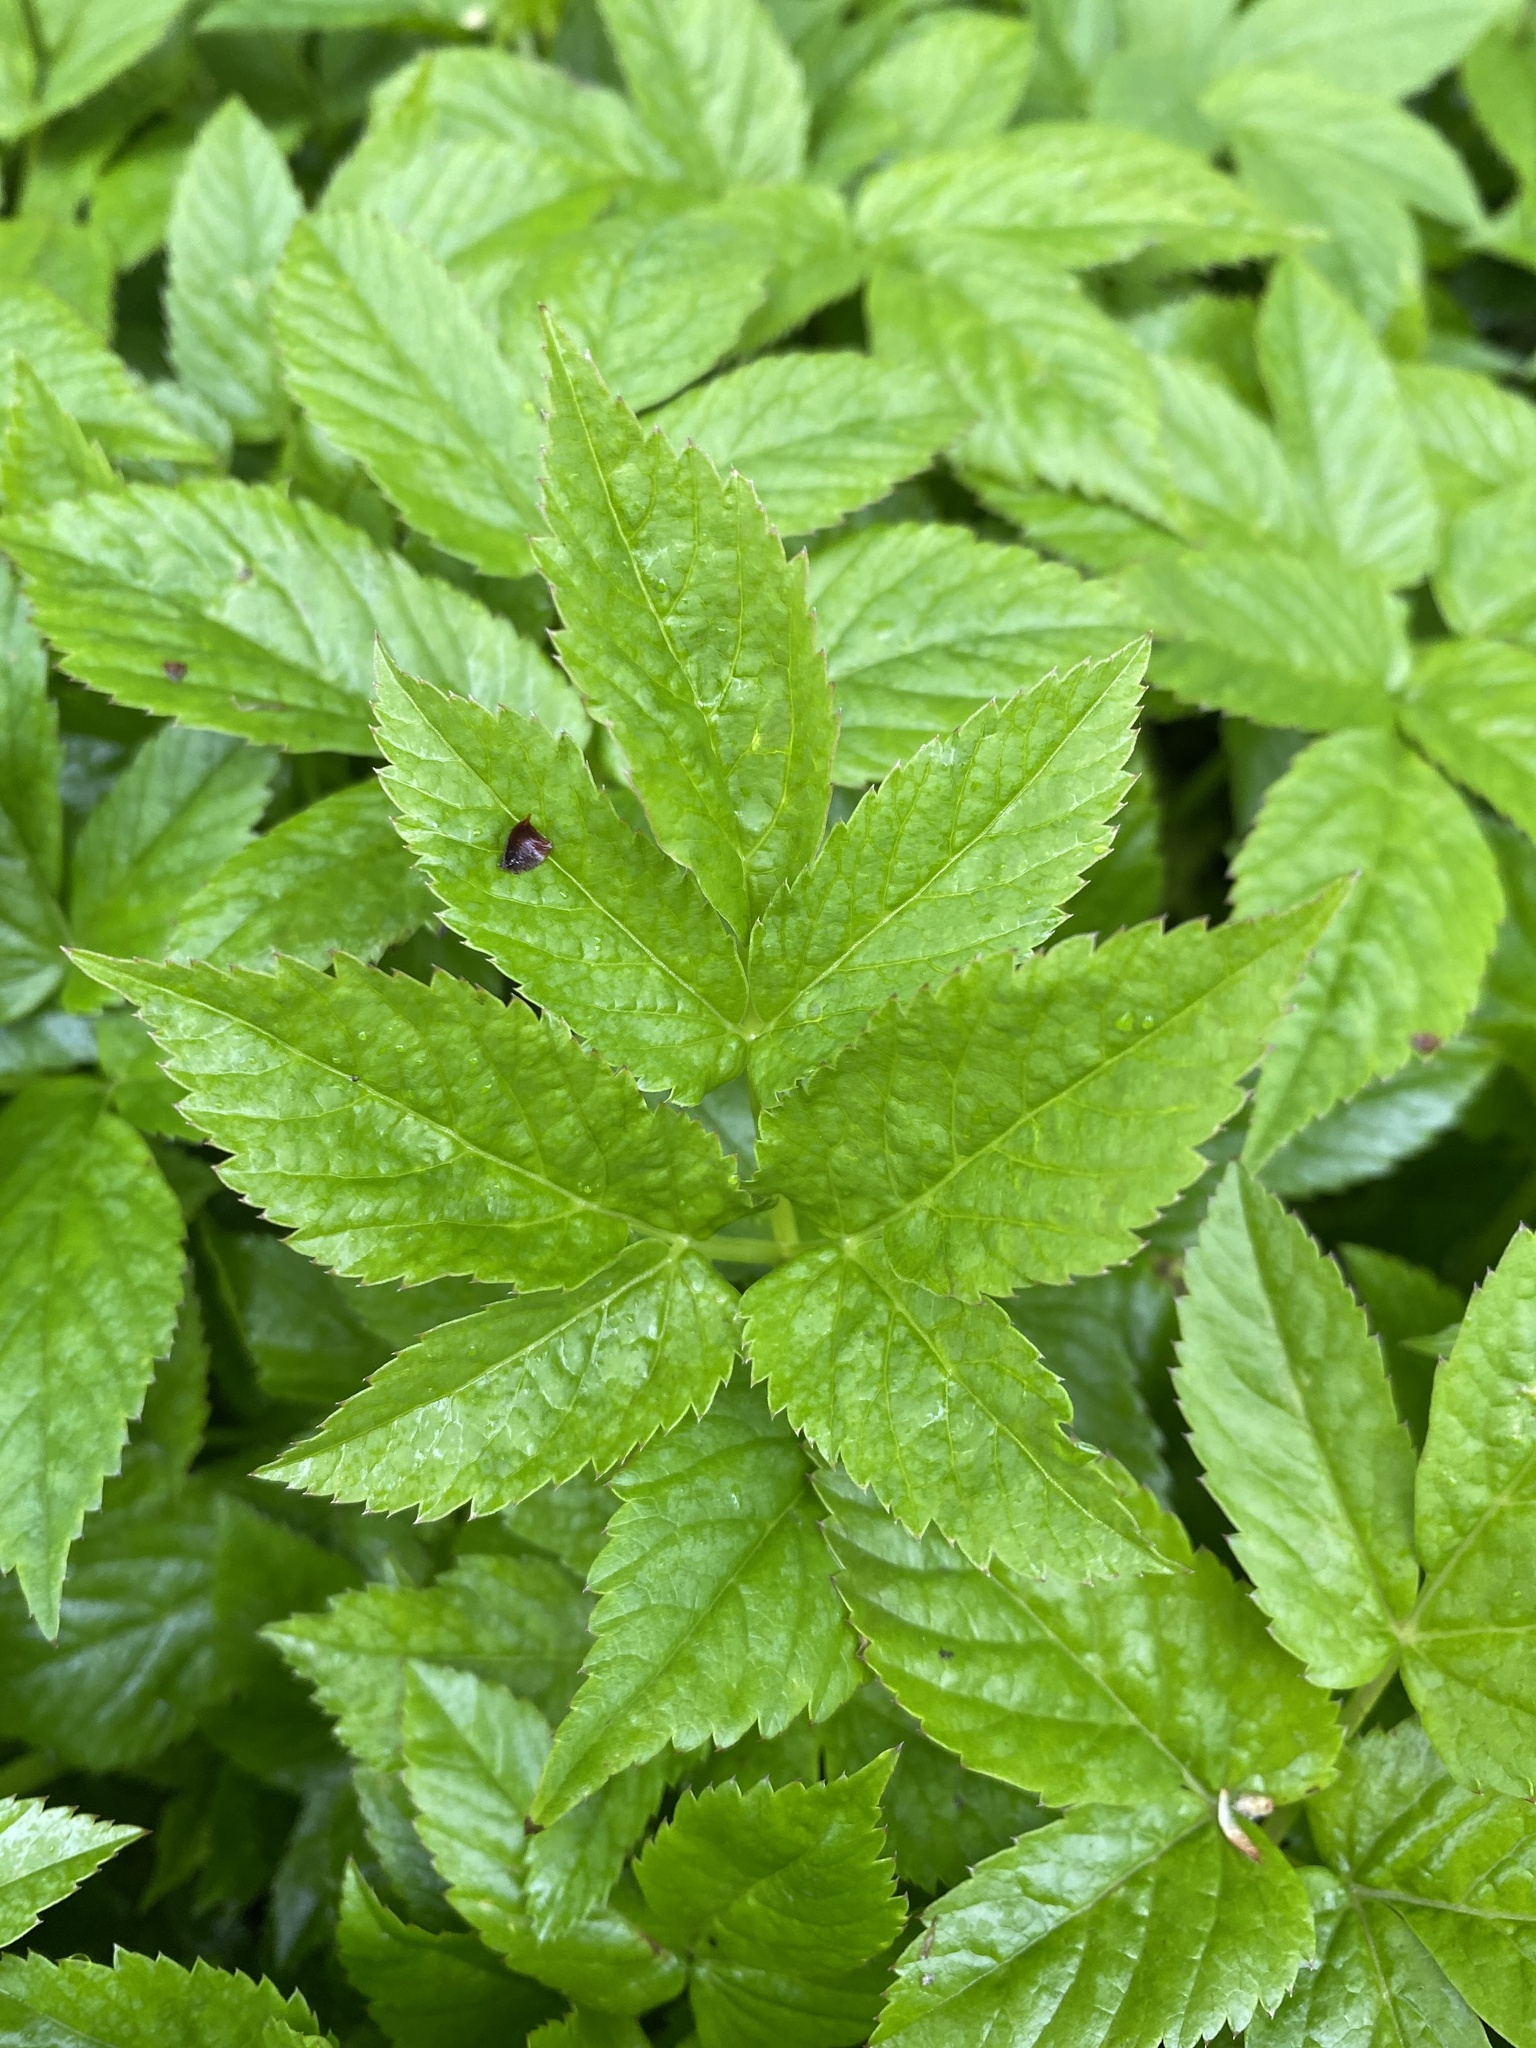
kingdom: Plantae
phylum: Tracheophyta
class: Magnoliopsida
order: Apiales
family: Apiaceae
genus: Aegopodium
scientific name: Aegopodium podagraria
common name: Ground-elder
